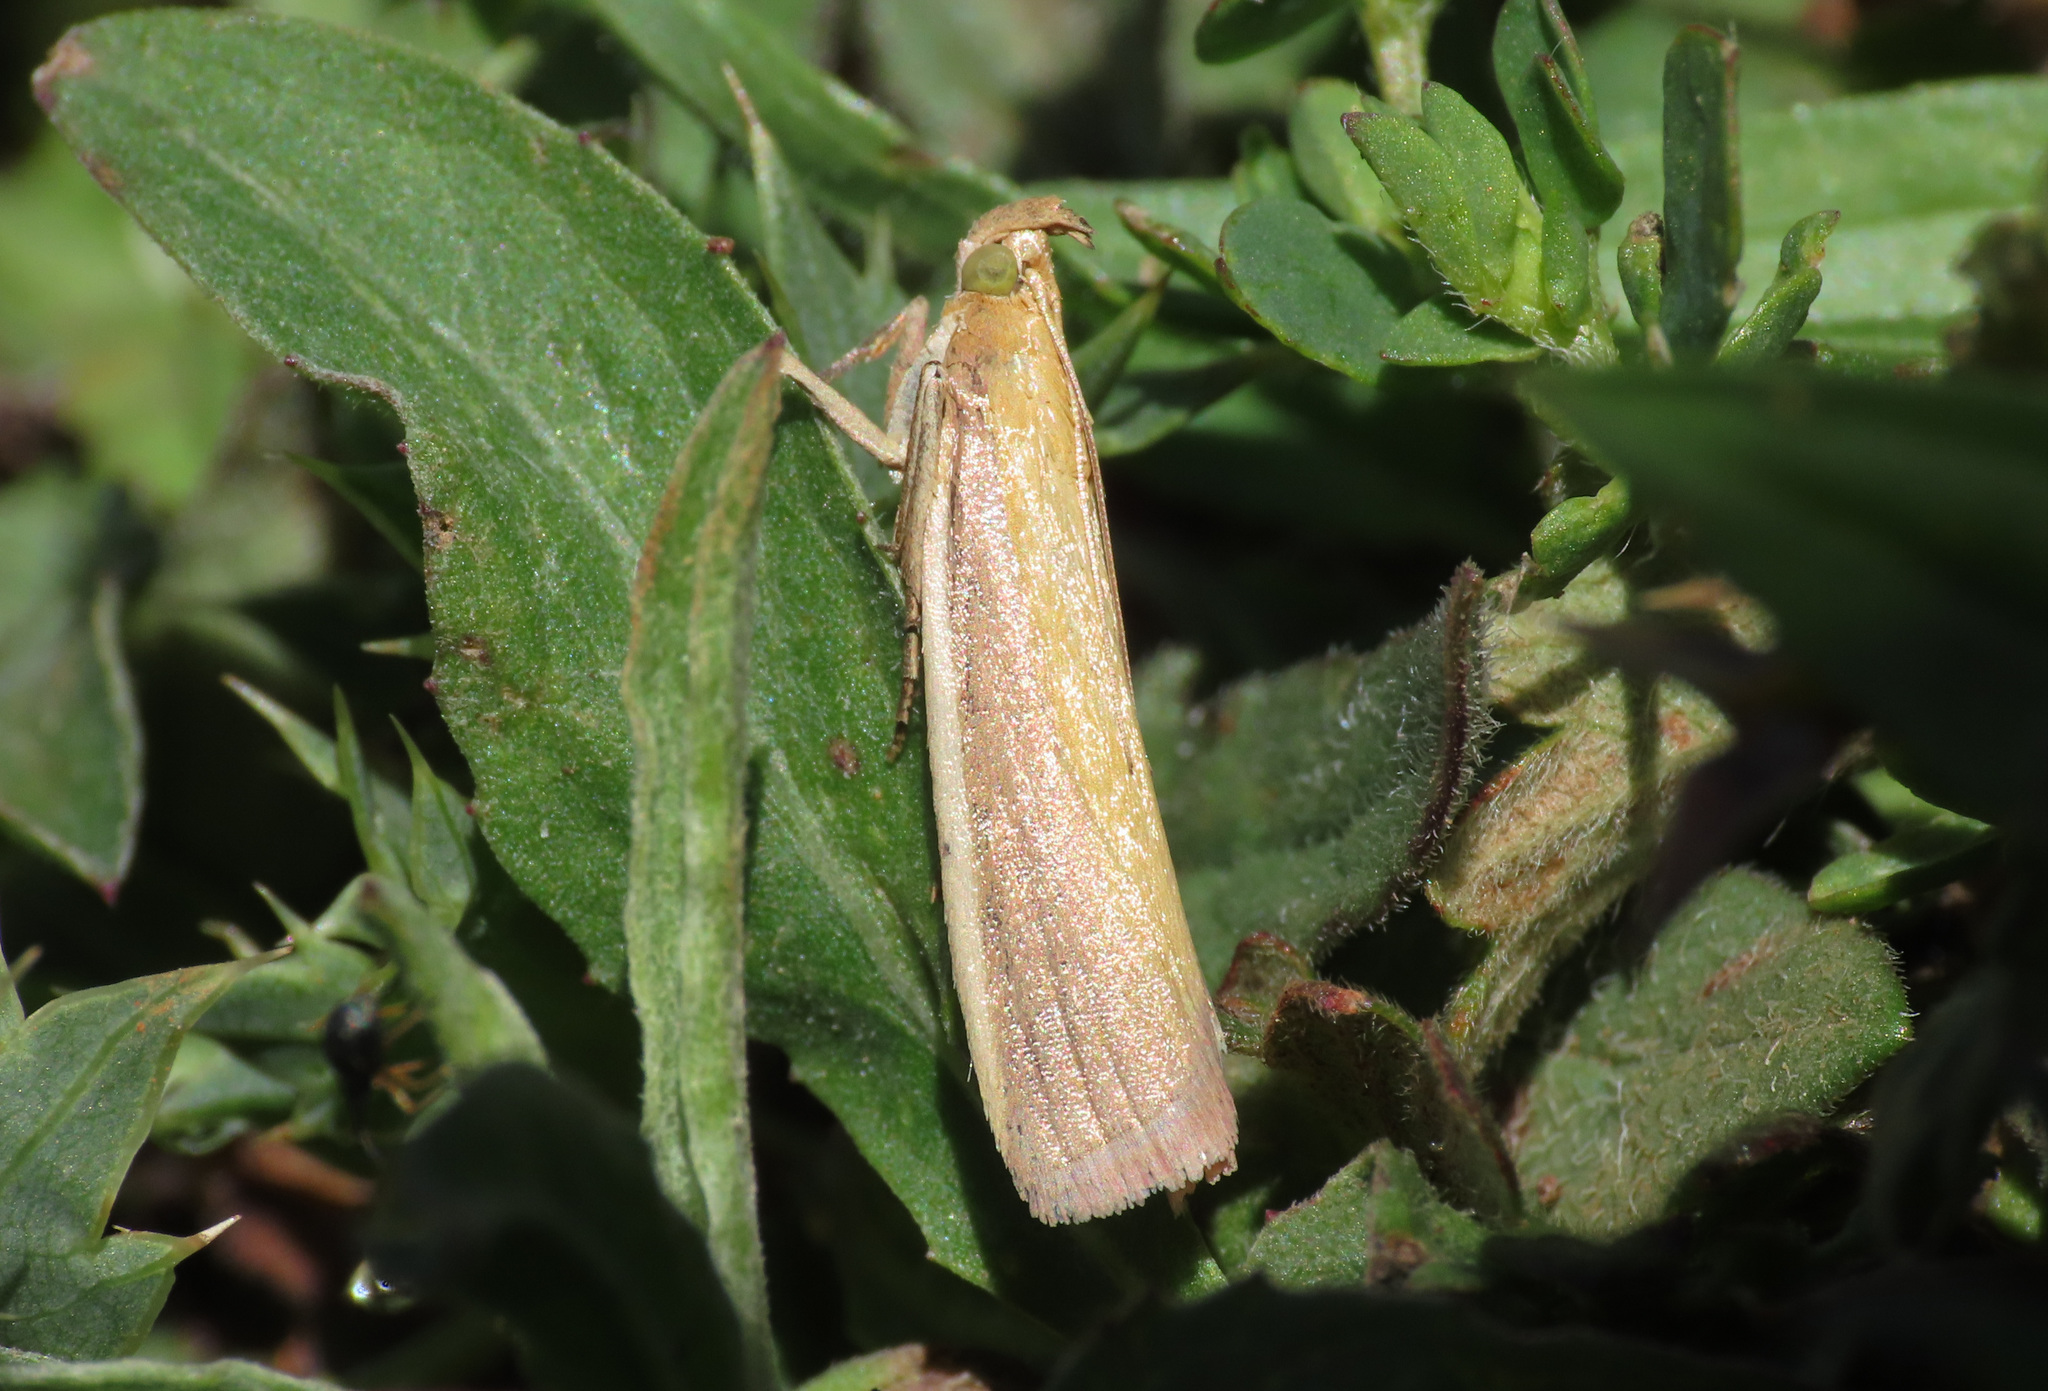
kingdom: Animalia
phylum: Arthropoda
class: Insecta
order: Lepidoptera
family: Pyralidae
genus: Oncocera
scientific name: Oncocera semirubella
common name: Rosy-striped knot-horn
